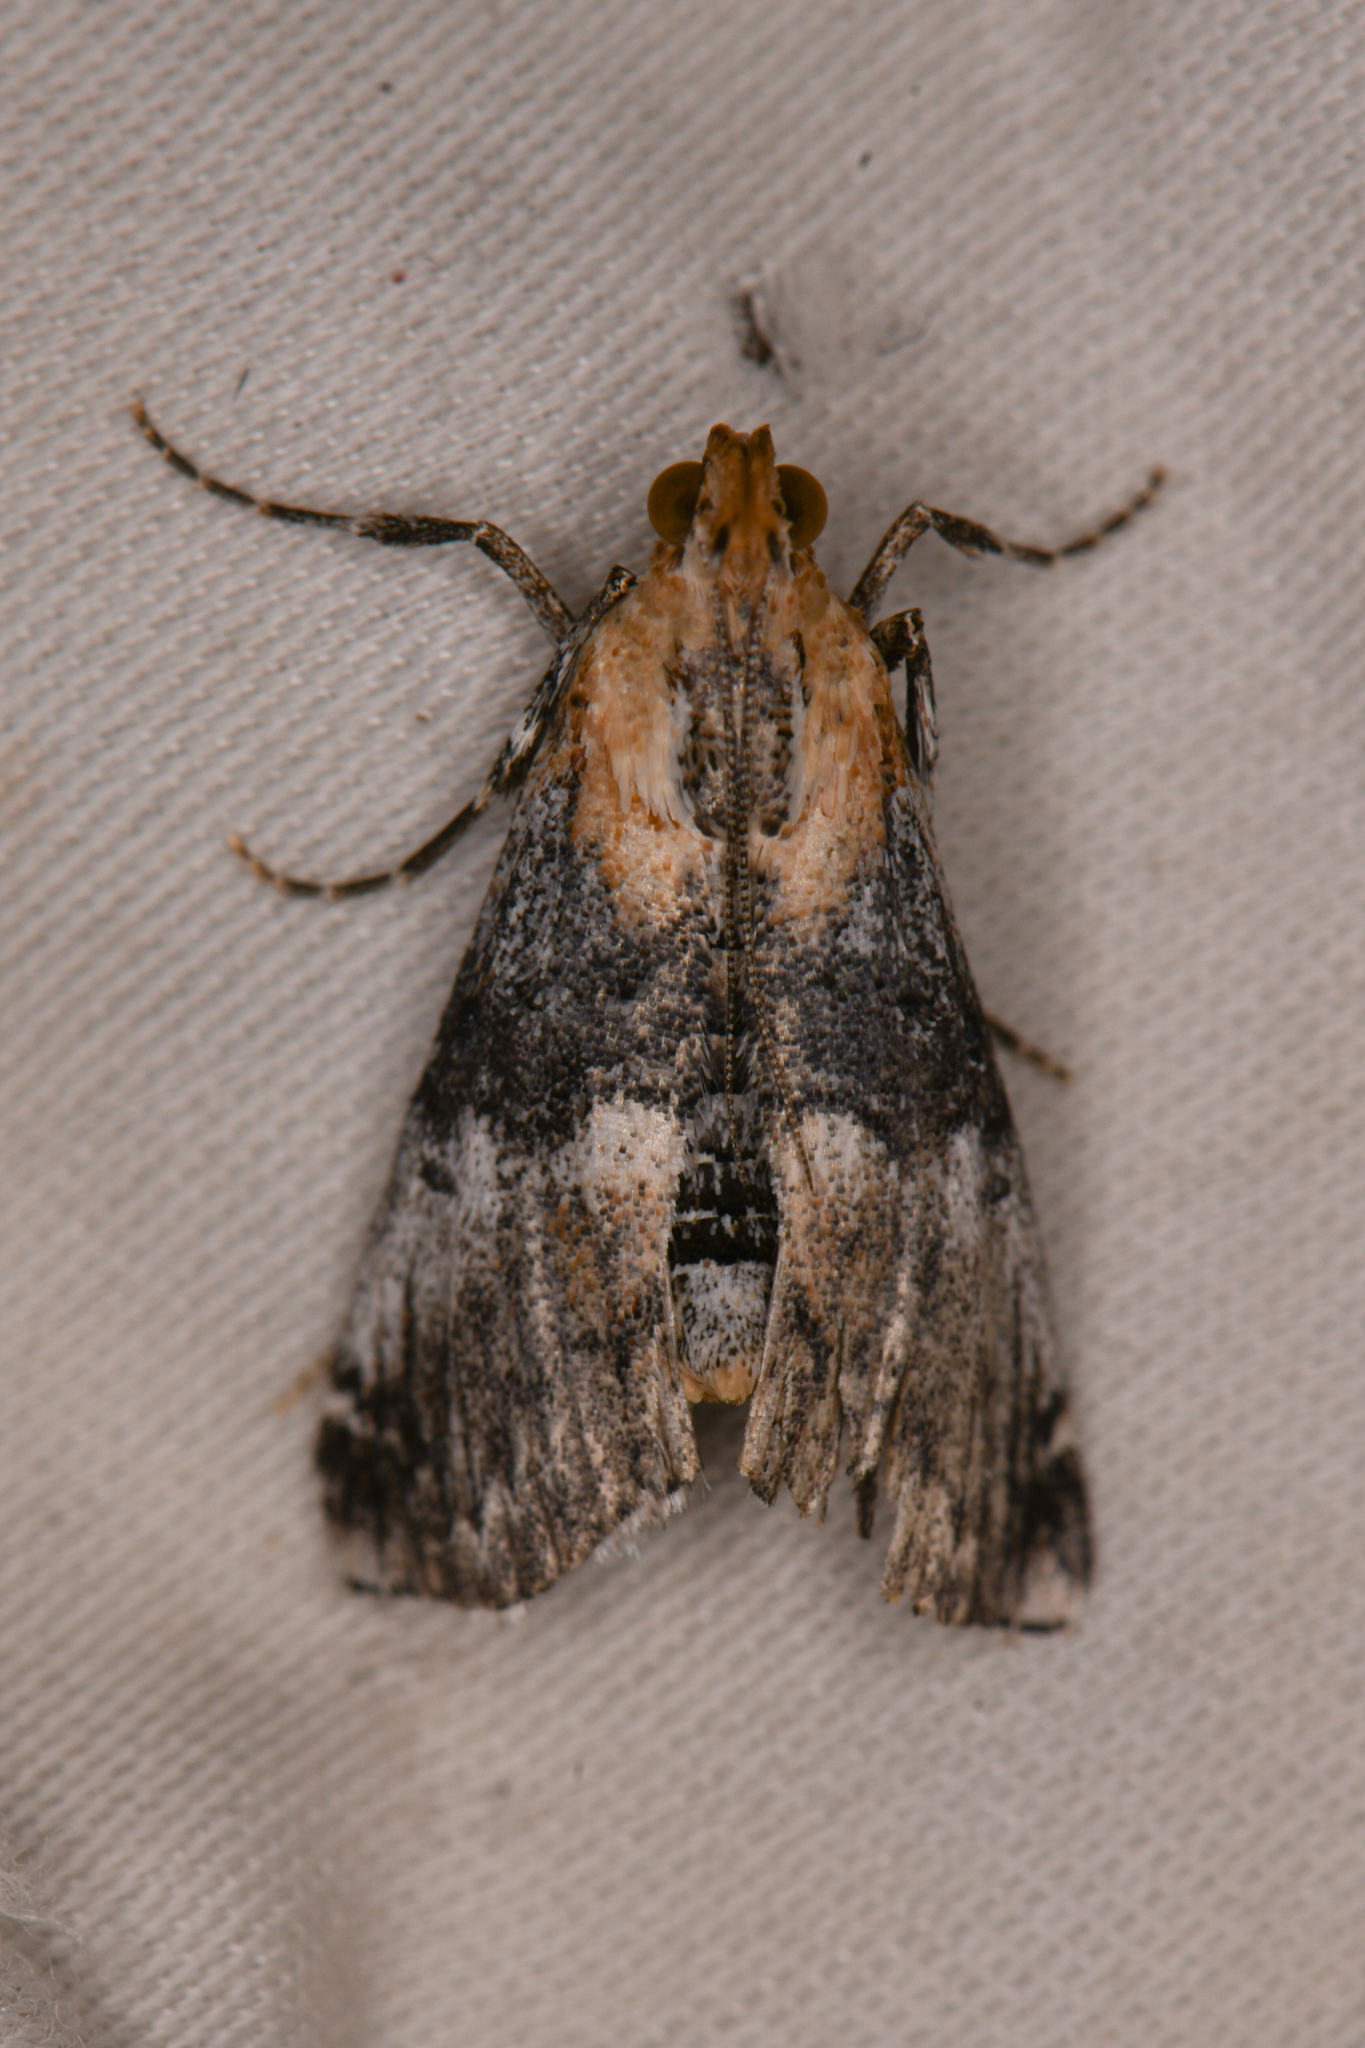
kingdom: Animalia
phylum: Arthropoda
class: Insecta
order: Lepidoptera
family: Pyralidae
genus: Toripalpus
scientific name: Toripalpus trabalis
